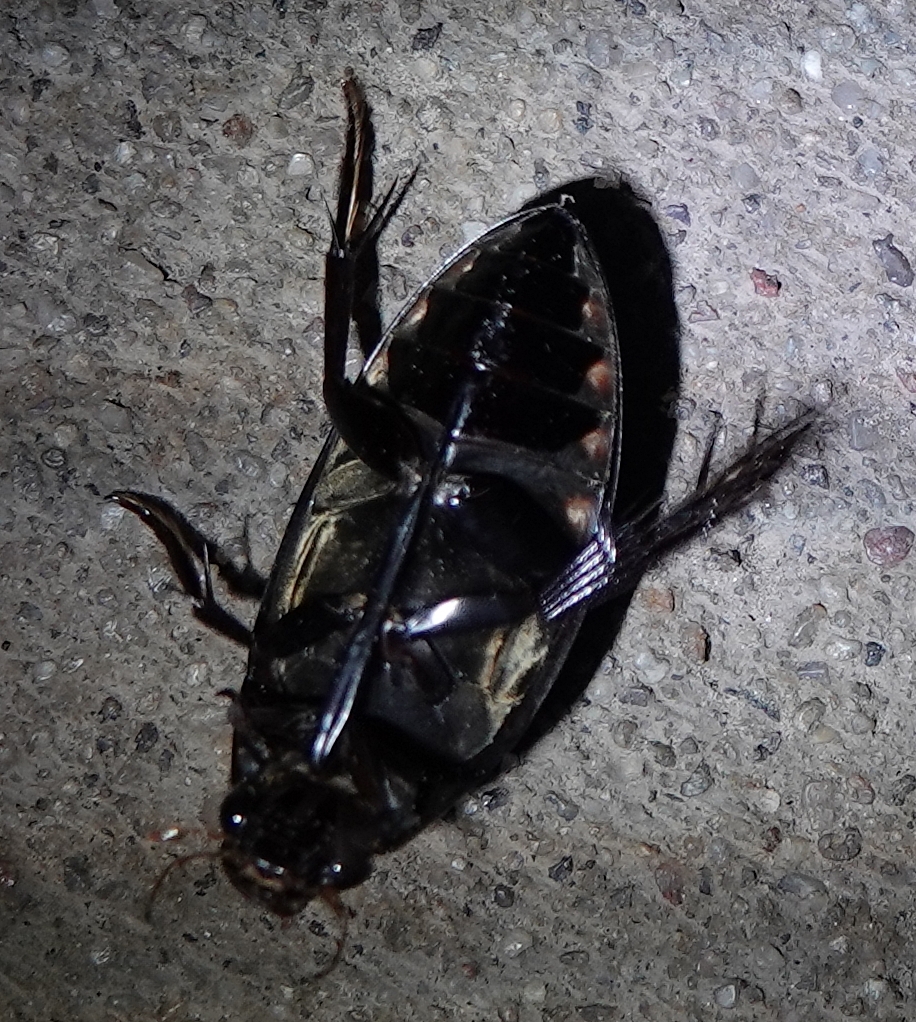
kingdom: Animalia
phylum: Arthropoda
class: Insecta
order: Coleoptera
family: Hydrophilidae
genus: Hydrophilus
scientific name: Hydrophilus triangularis
